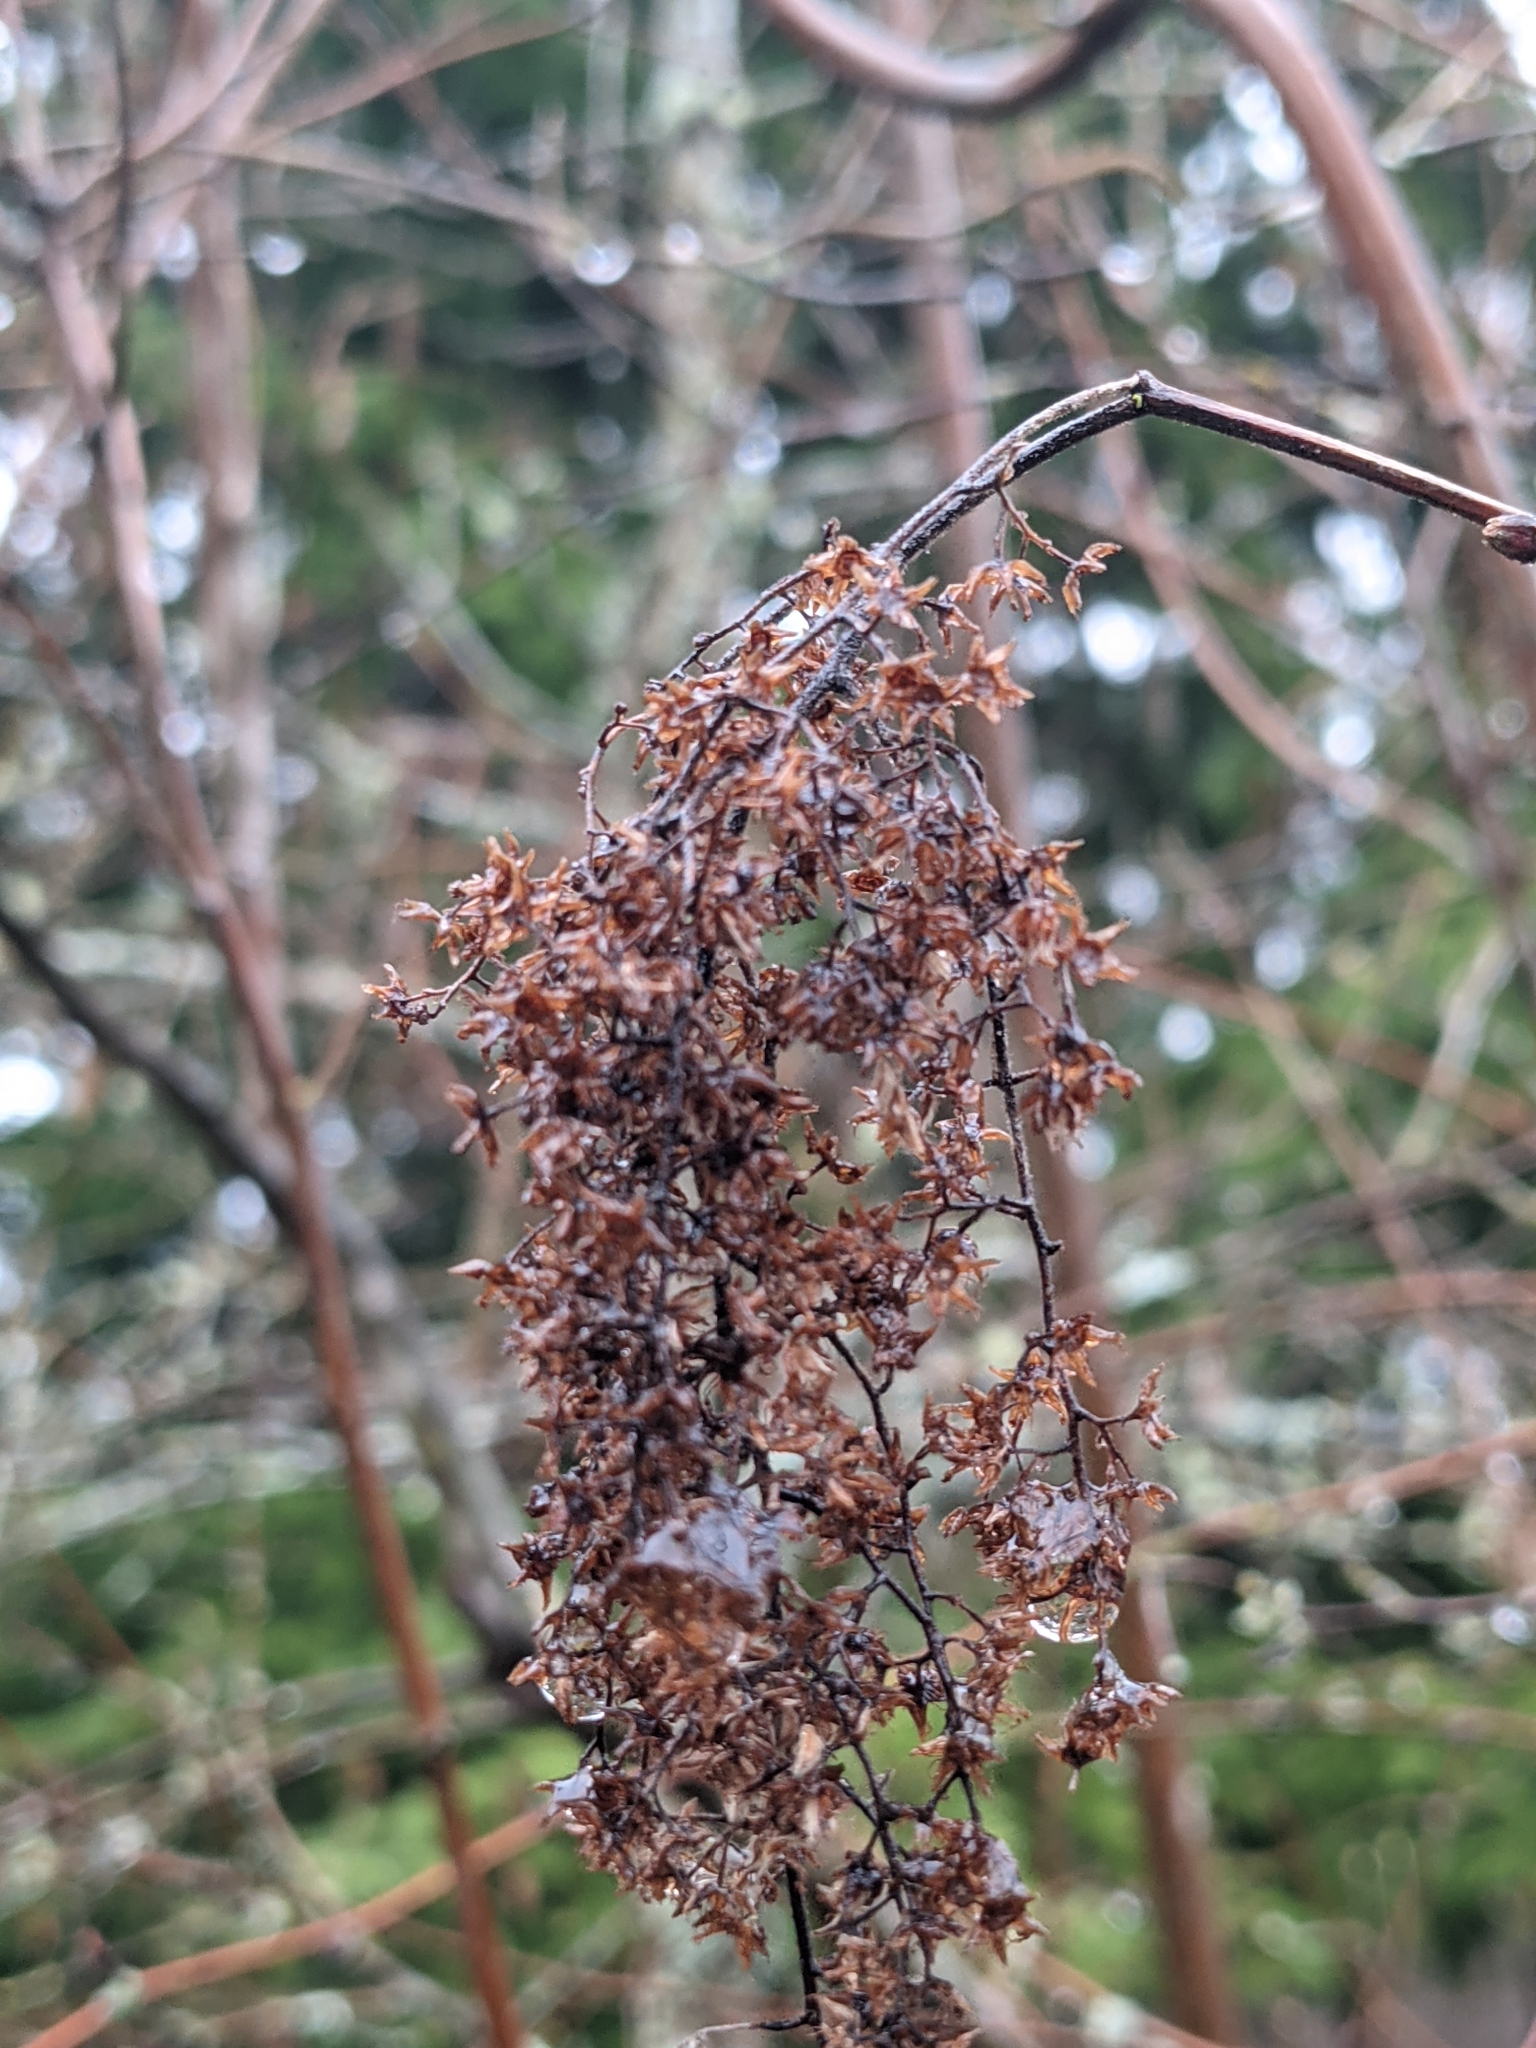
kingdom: Plantae
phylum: Tracheophyta
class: Magnoliopsida
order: Rosales
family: Rosaceae
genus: Holodiscus
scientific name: Holodiscus discolor
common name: Oceanspray
